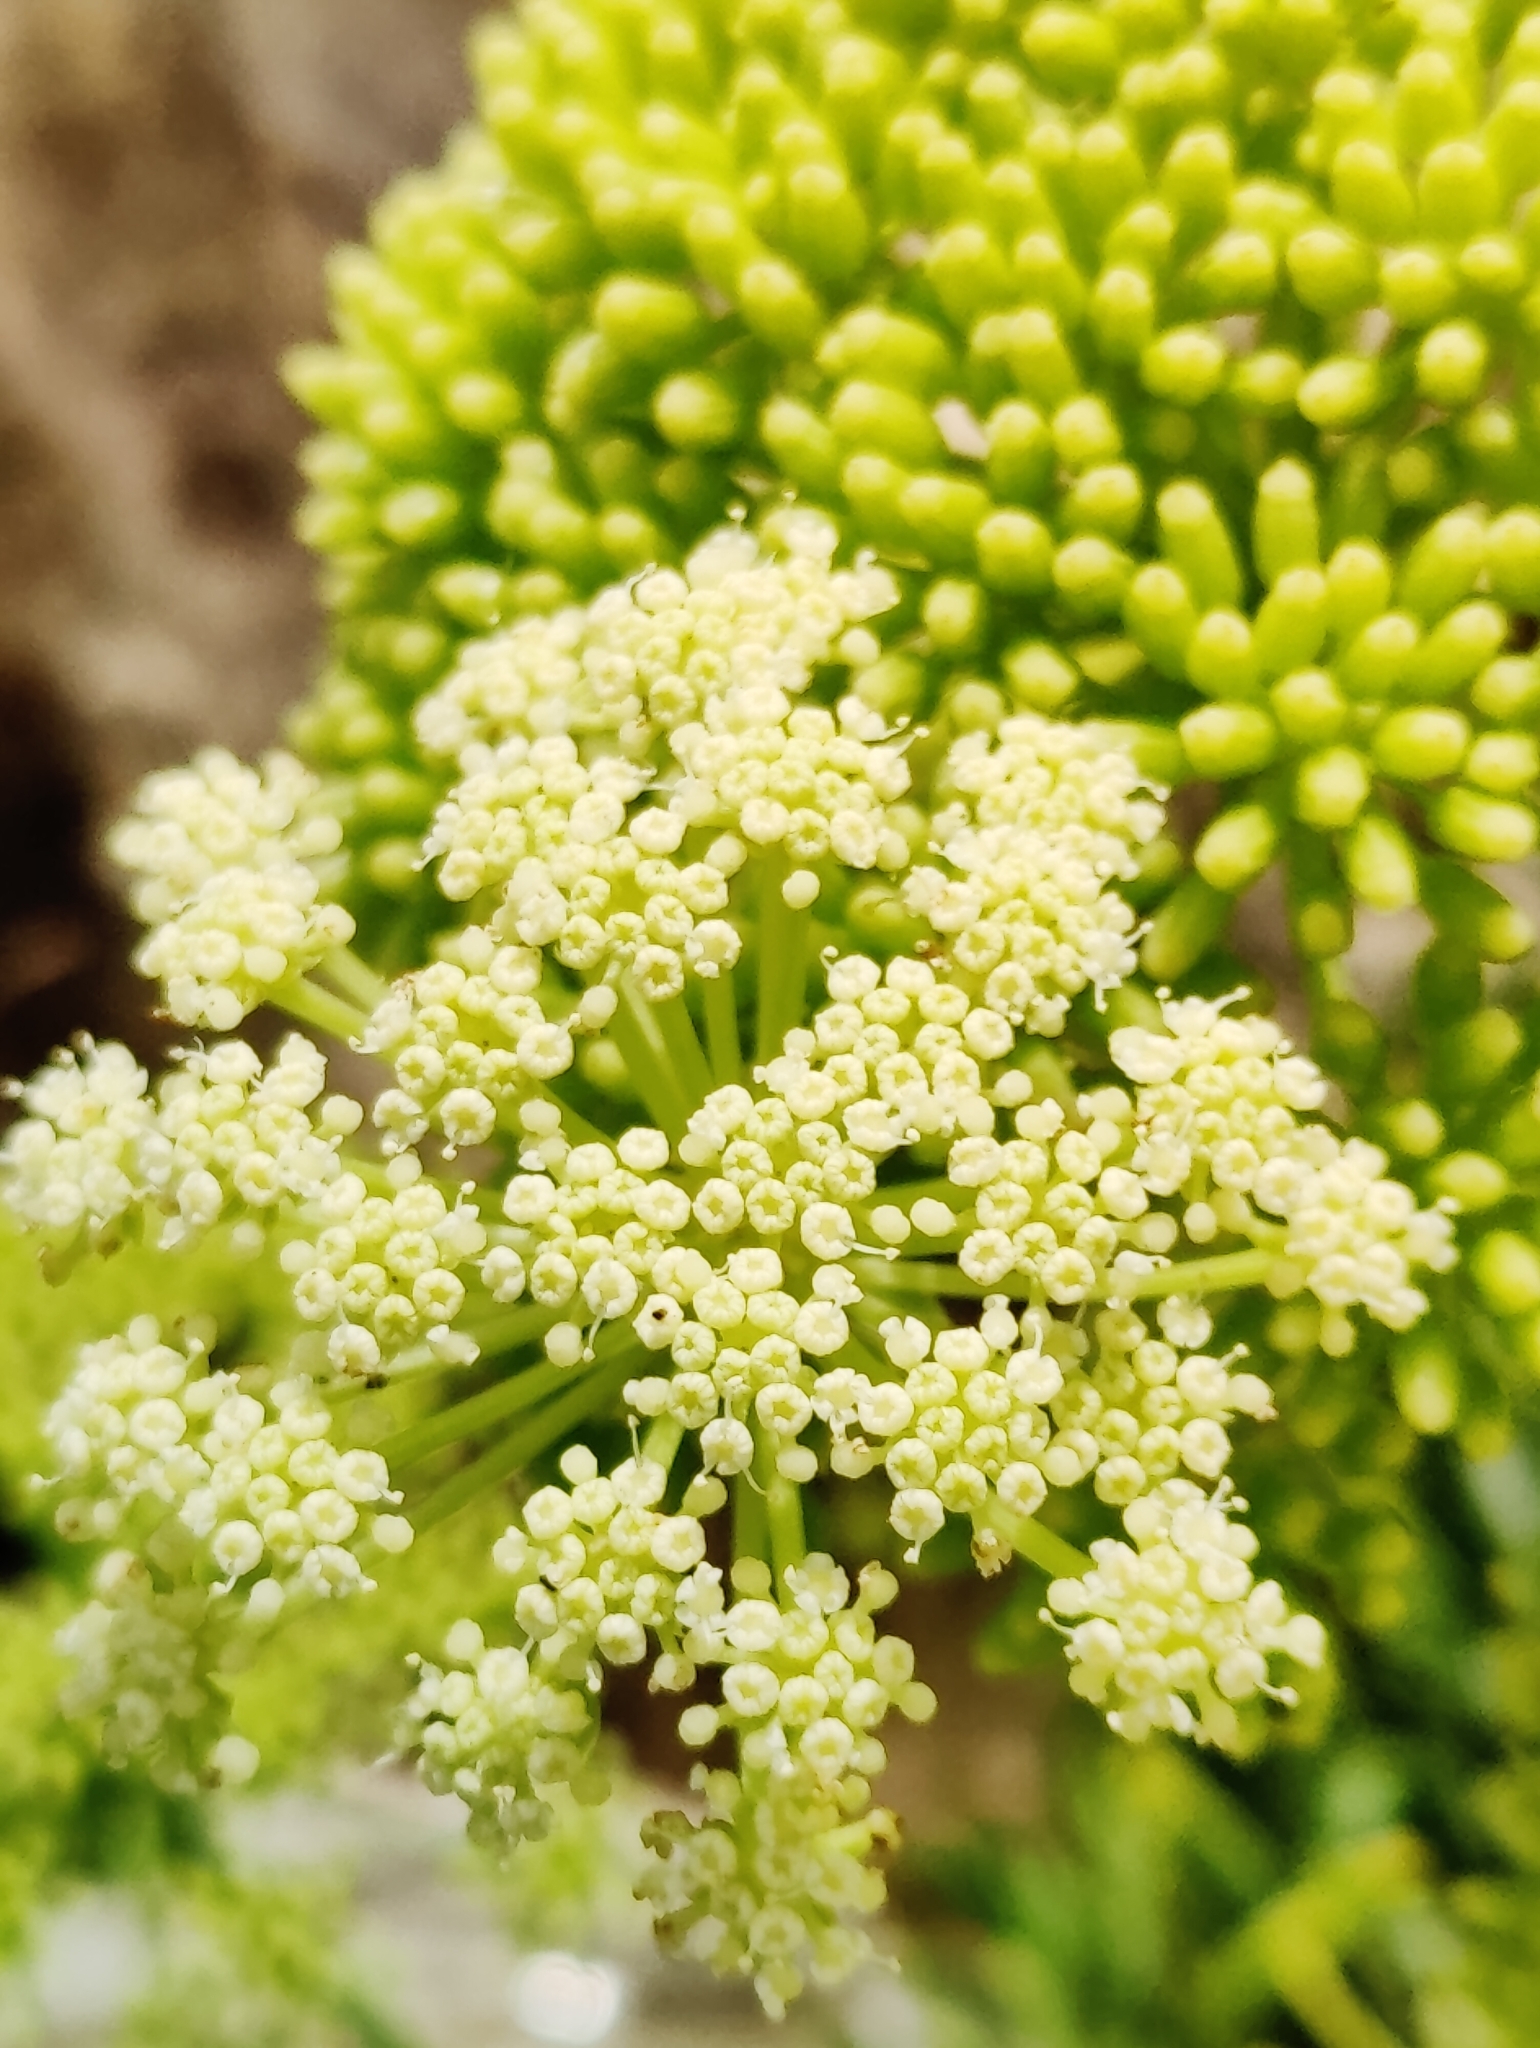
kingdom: Plantae
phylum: Tracheophyta
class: Magnoliopsida
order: Apiales
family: Apiaceae
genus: Crithmum
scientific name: Crithmum maritimum
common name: Rock samphire
